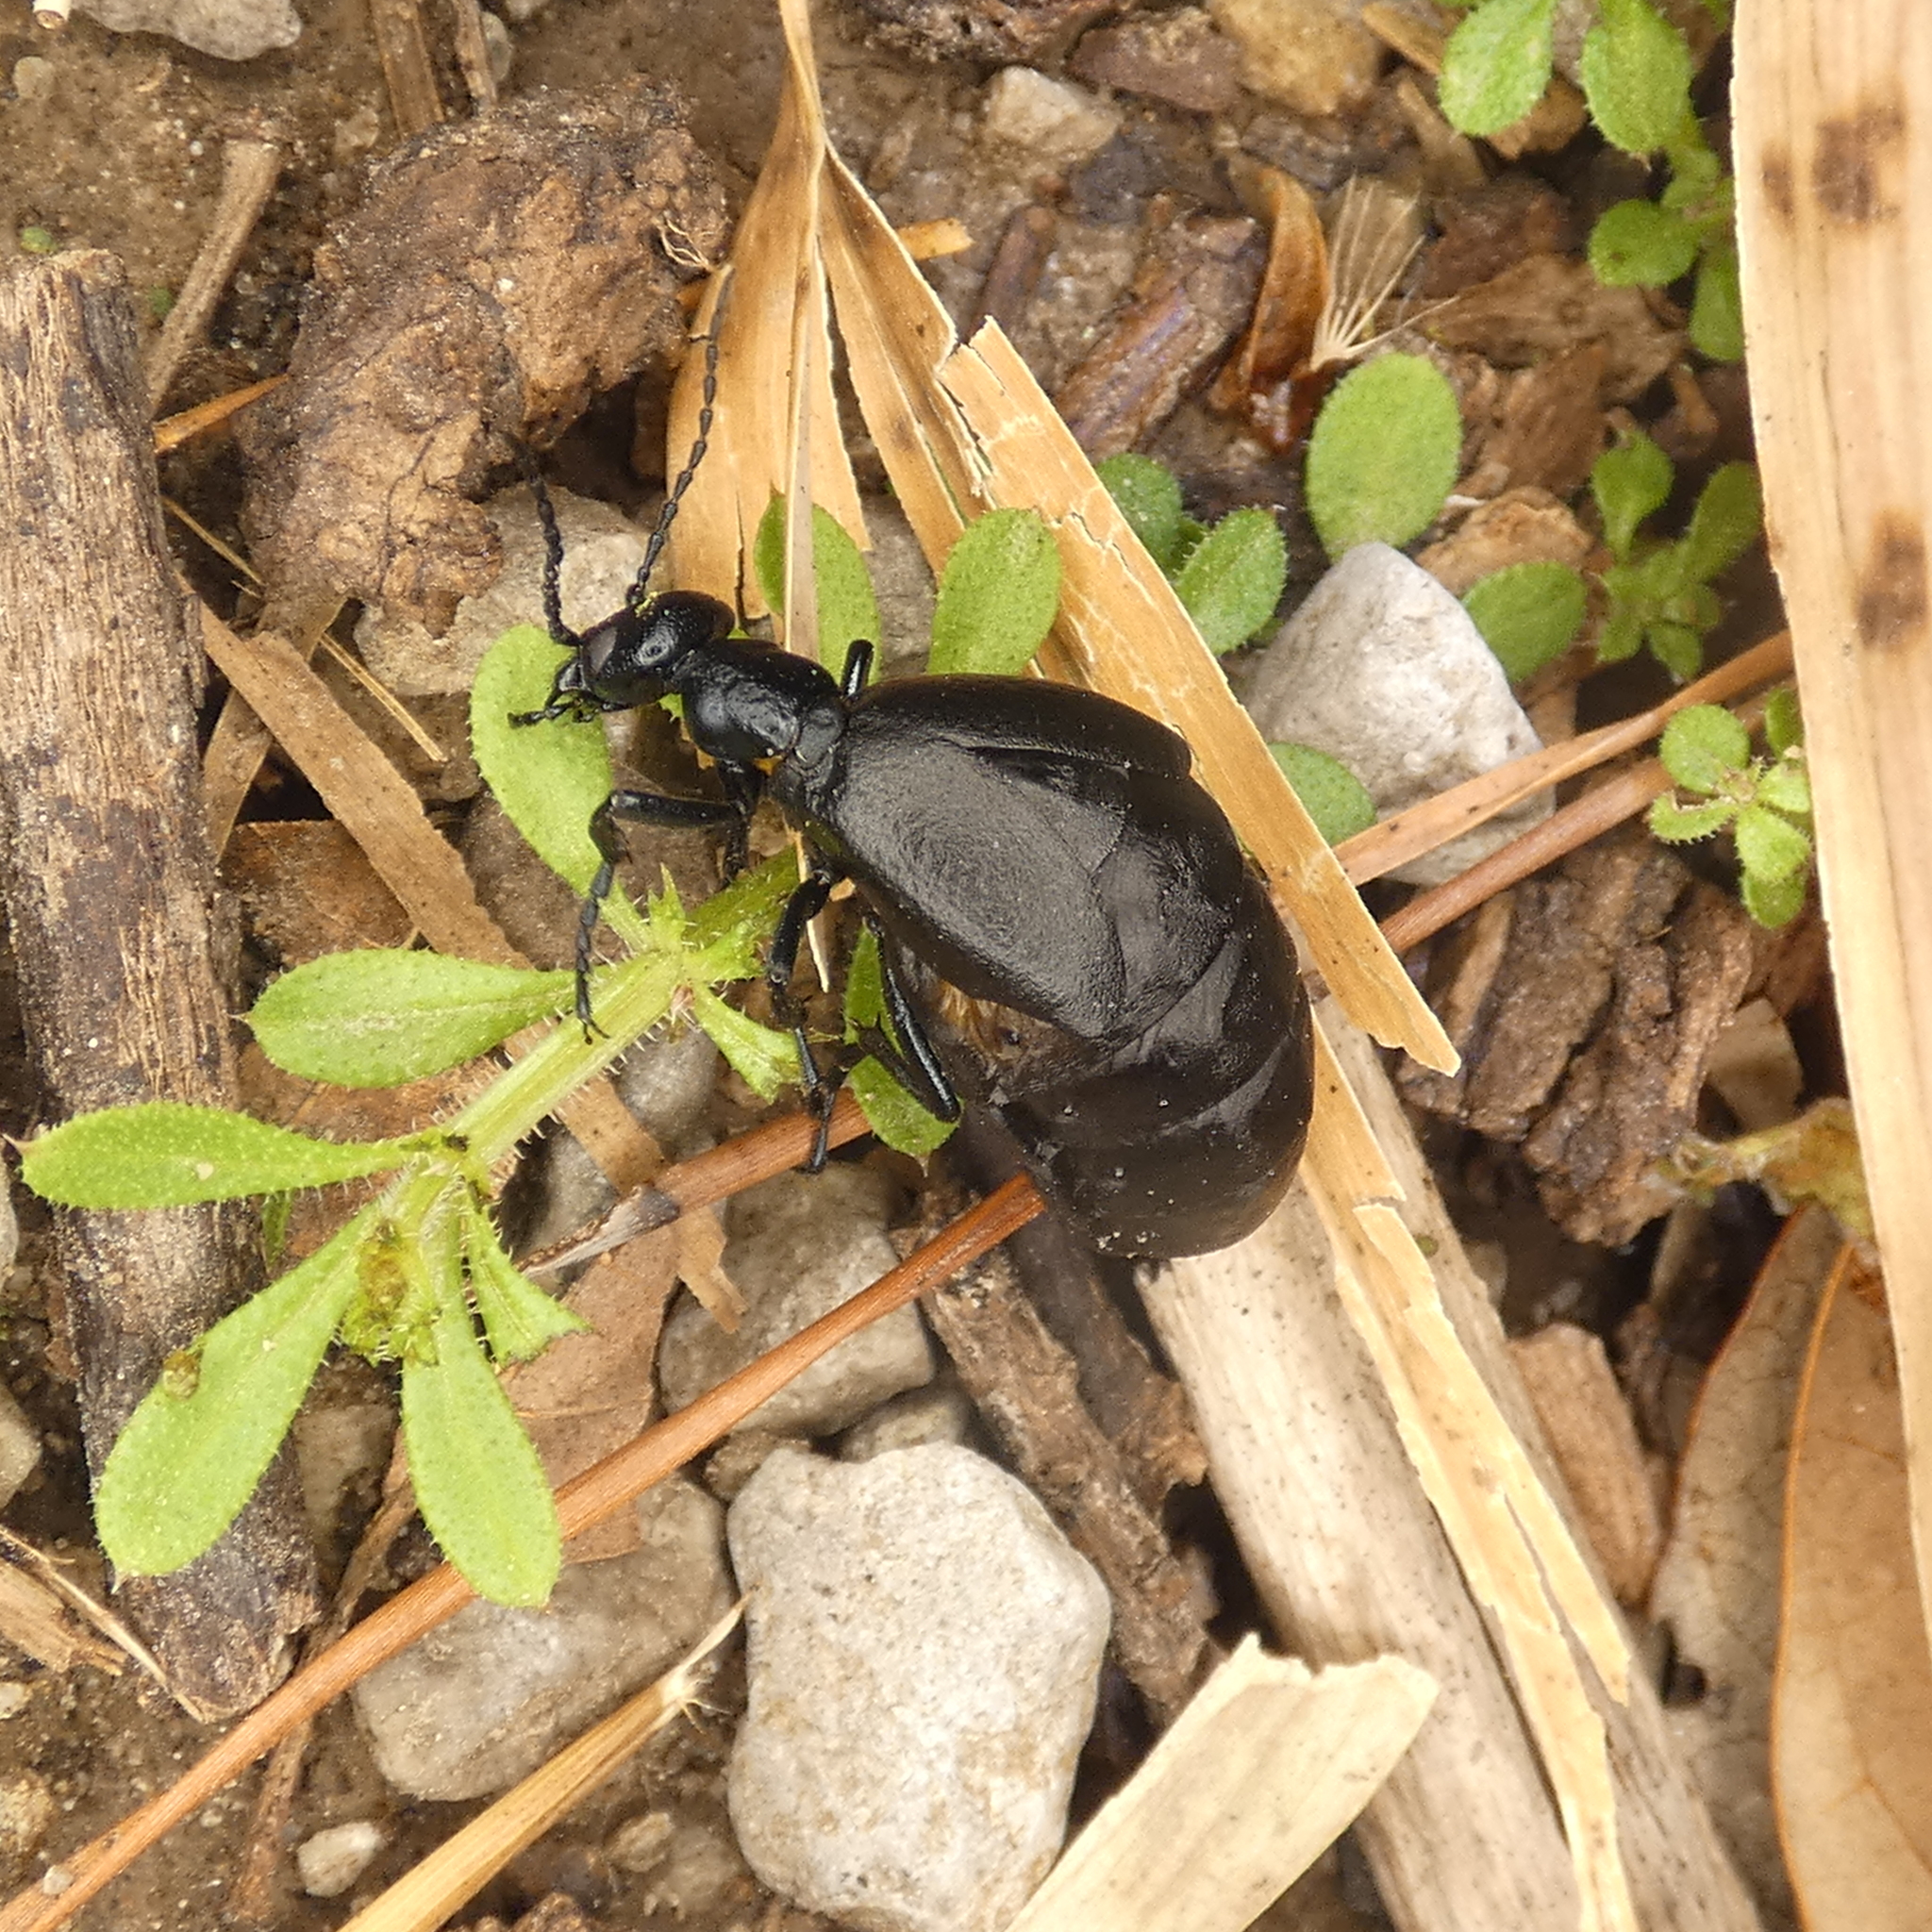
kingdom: Animalia
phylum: Arthropoda
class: Insecta
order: Coleoptera
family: Meloidae
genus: Meloe
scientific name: Meloe americanus
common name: Buttercup oil beetle
